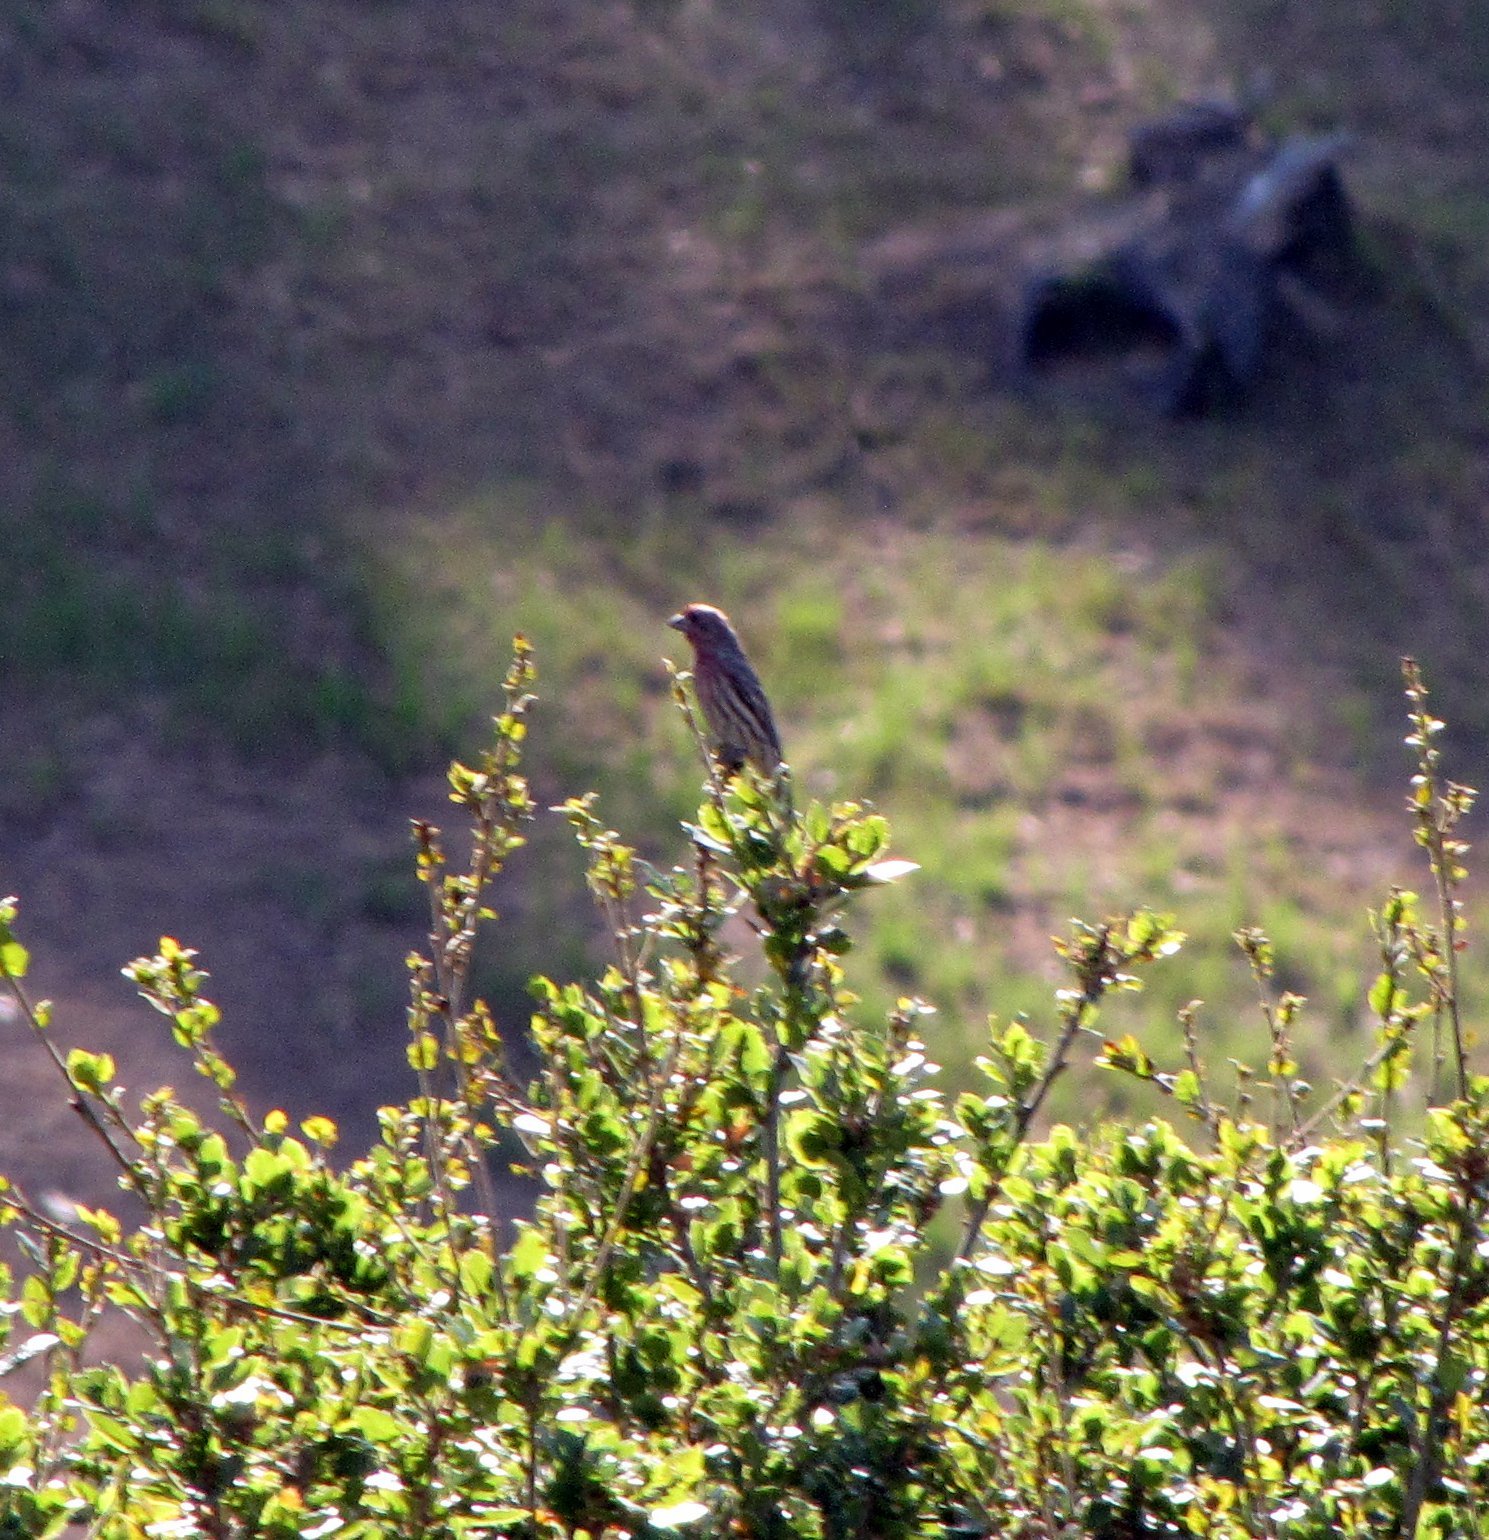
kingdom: Animalia
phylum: Chordata
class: Aves
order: Passeriformes
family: Fringillidae
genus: Haemorhous
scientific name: Haemorhous mexicanus
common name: House finch
